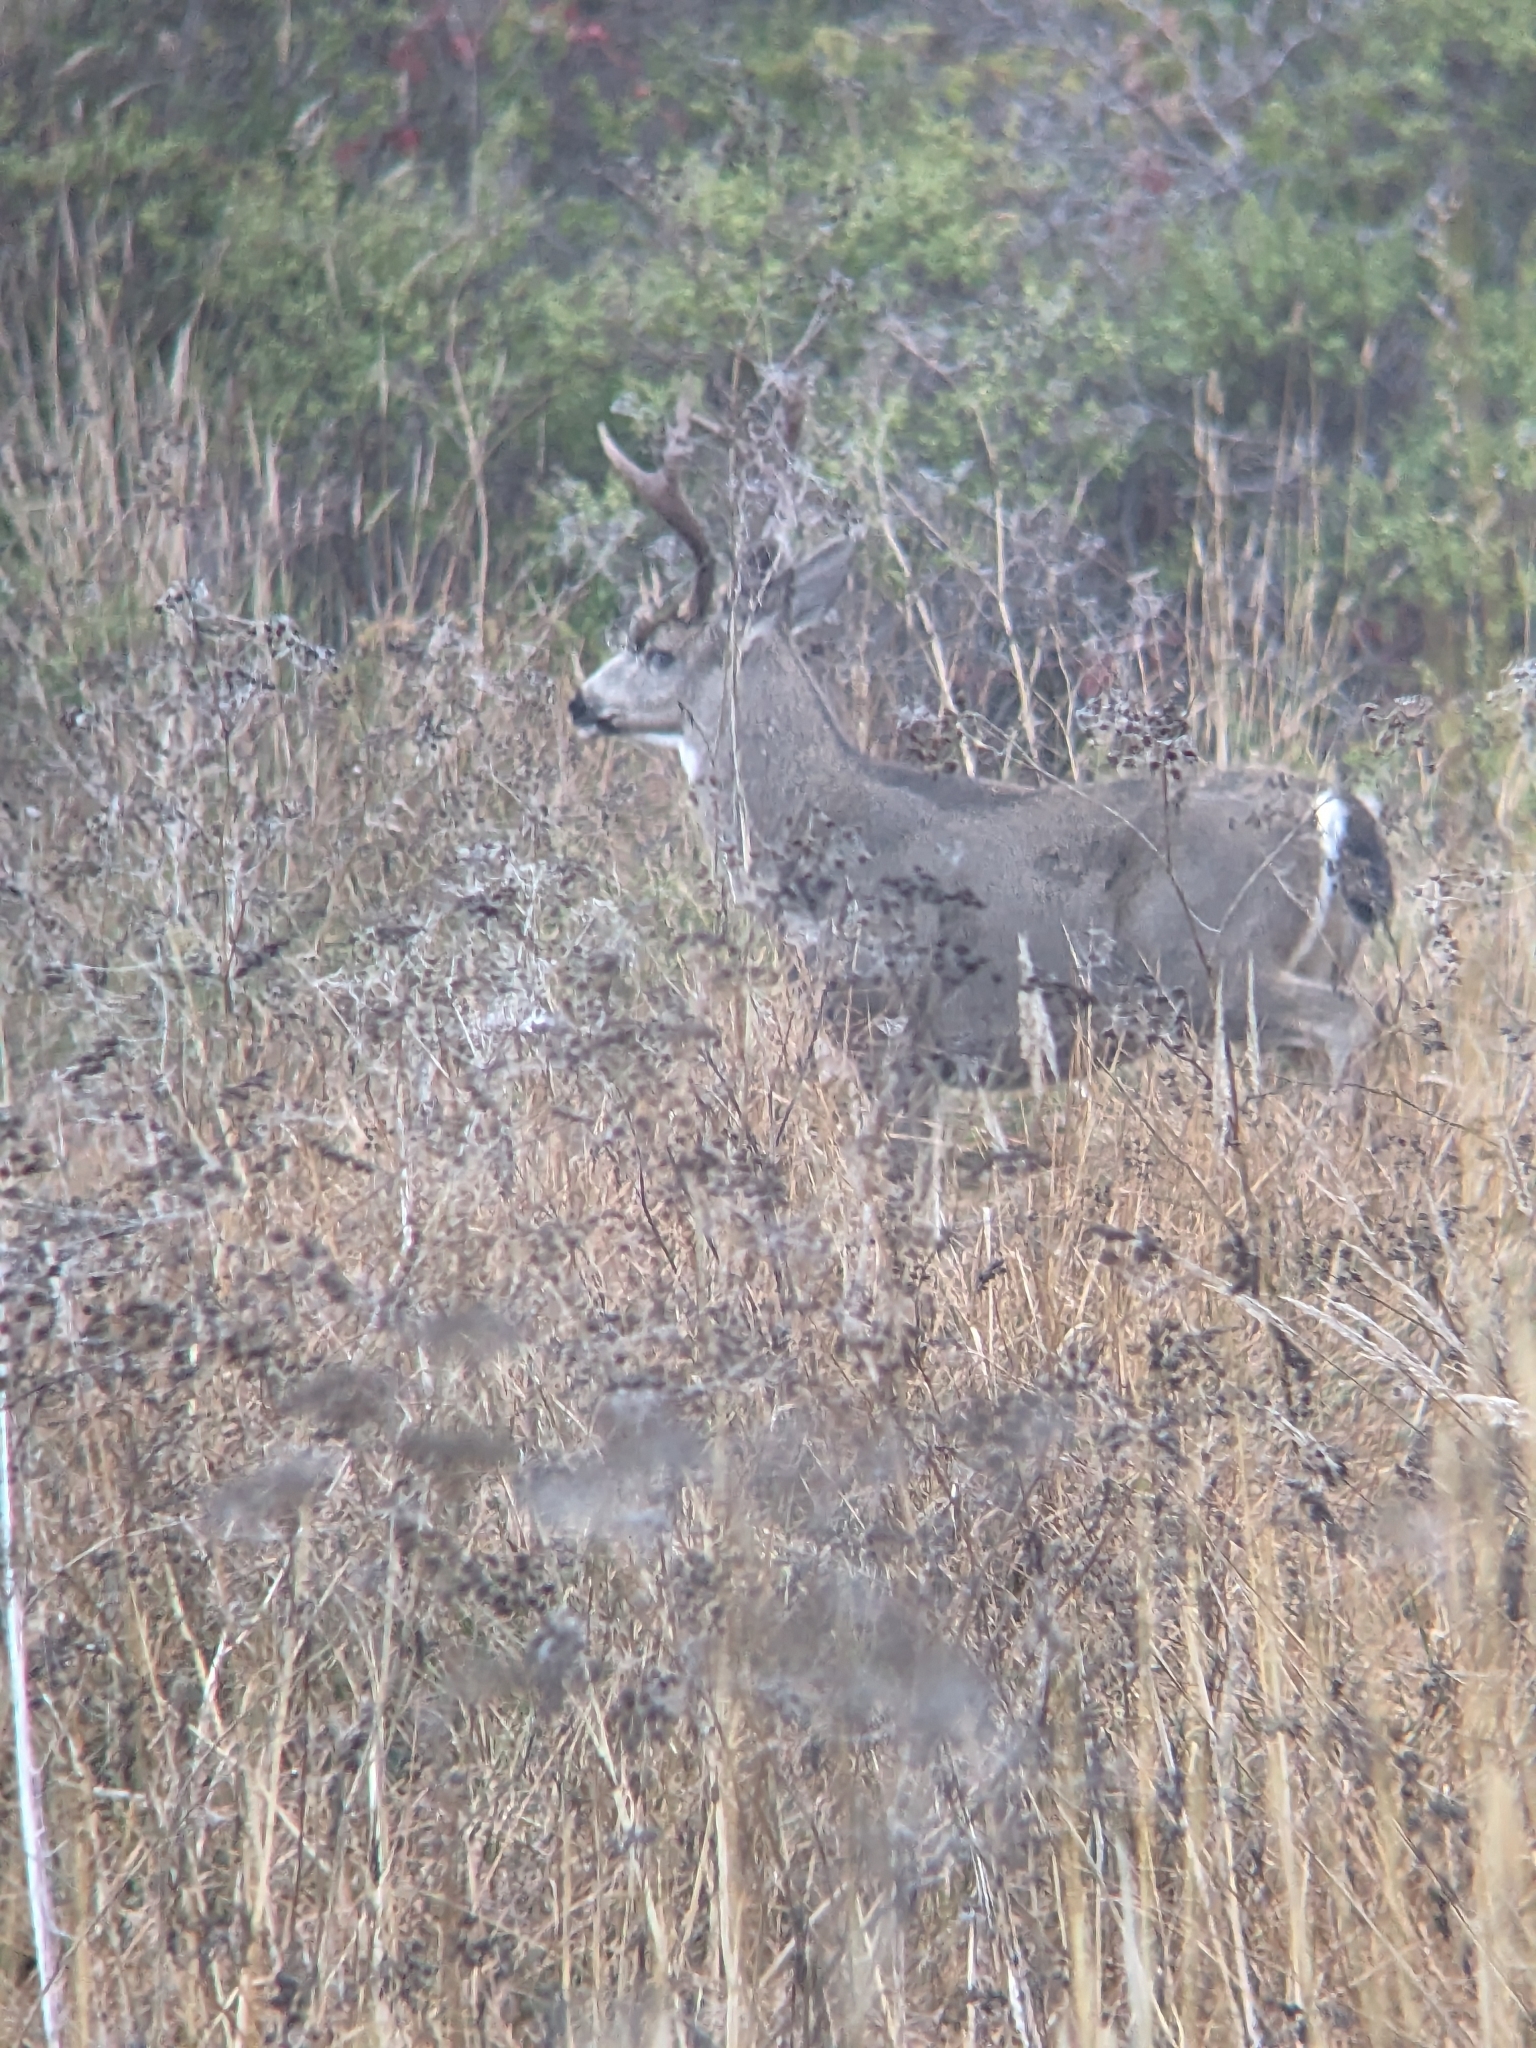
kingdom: Animalia
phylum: Chordata
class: Mammalia
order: Artiodactyla
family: Cervidae
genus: Odocoileus
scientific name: Odocoileus hemionus
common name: Mule deer
